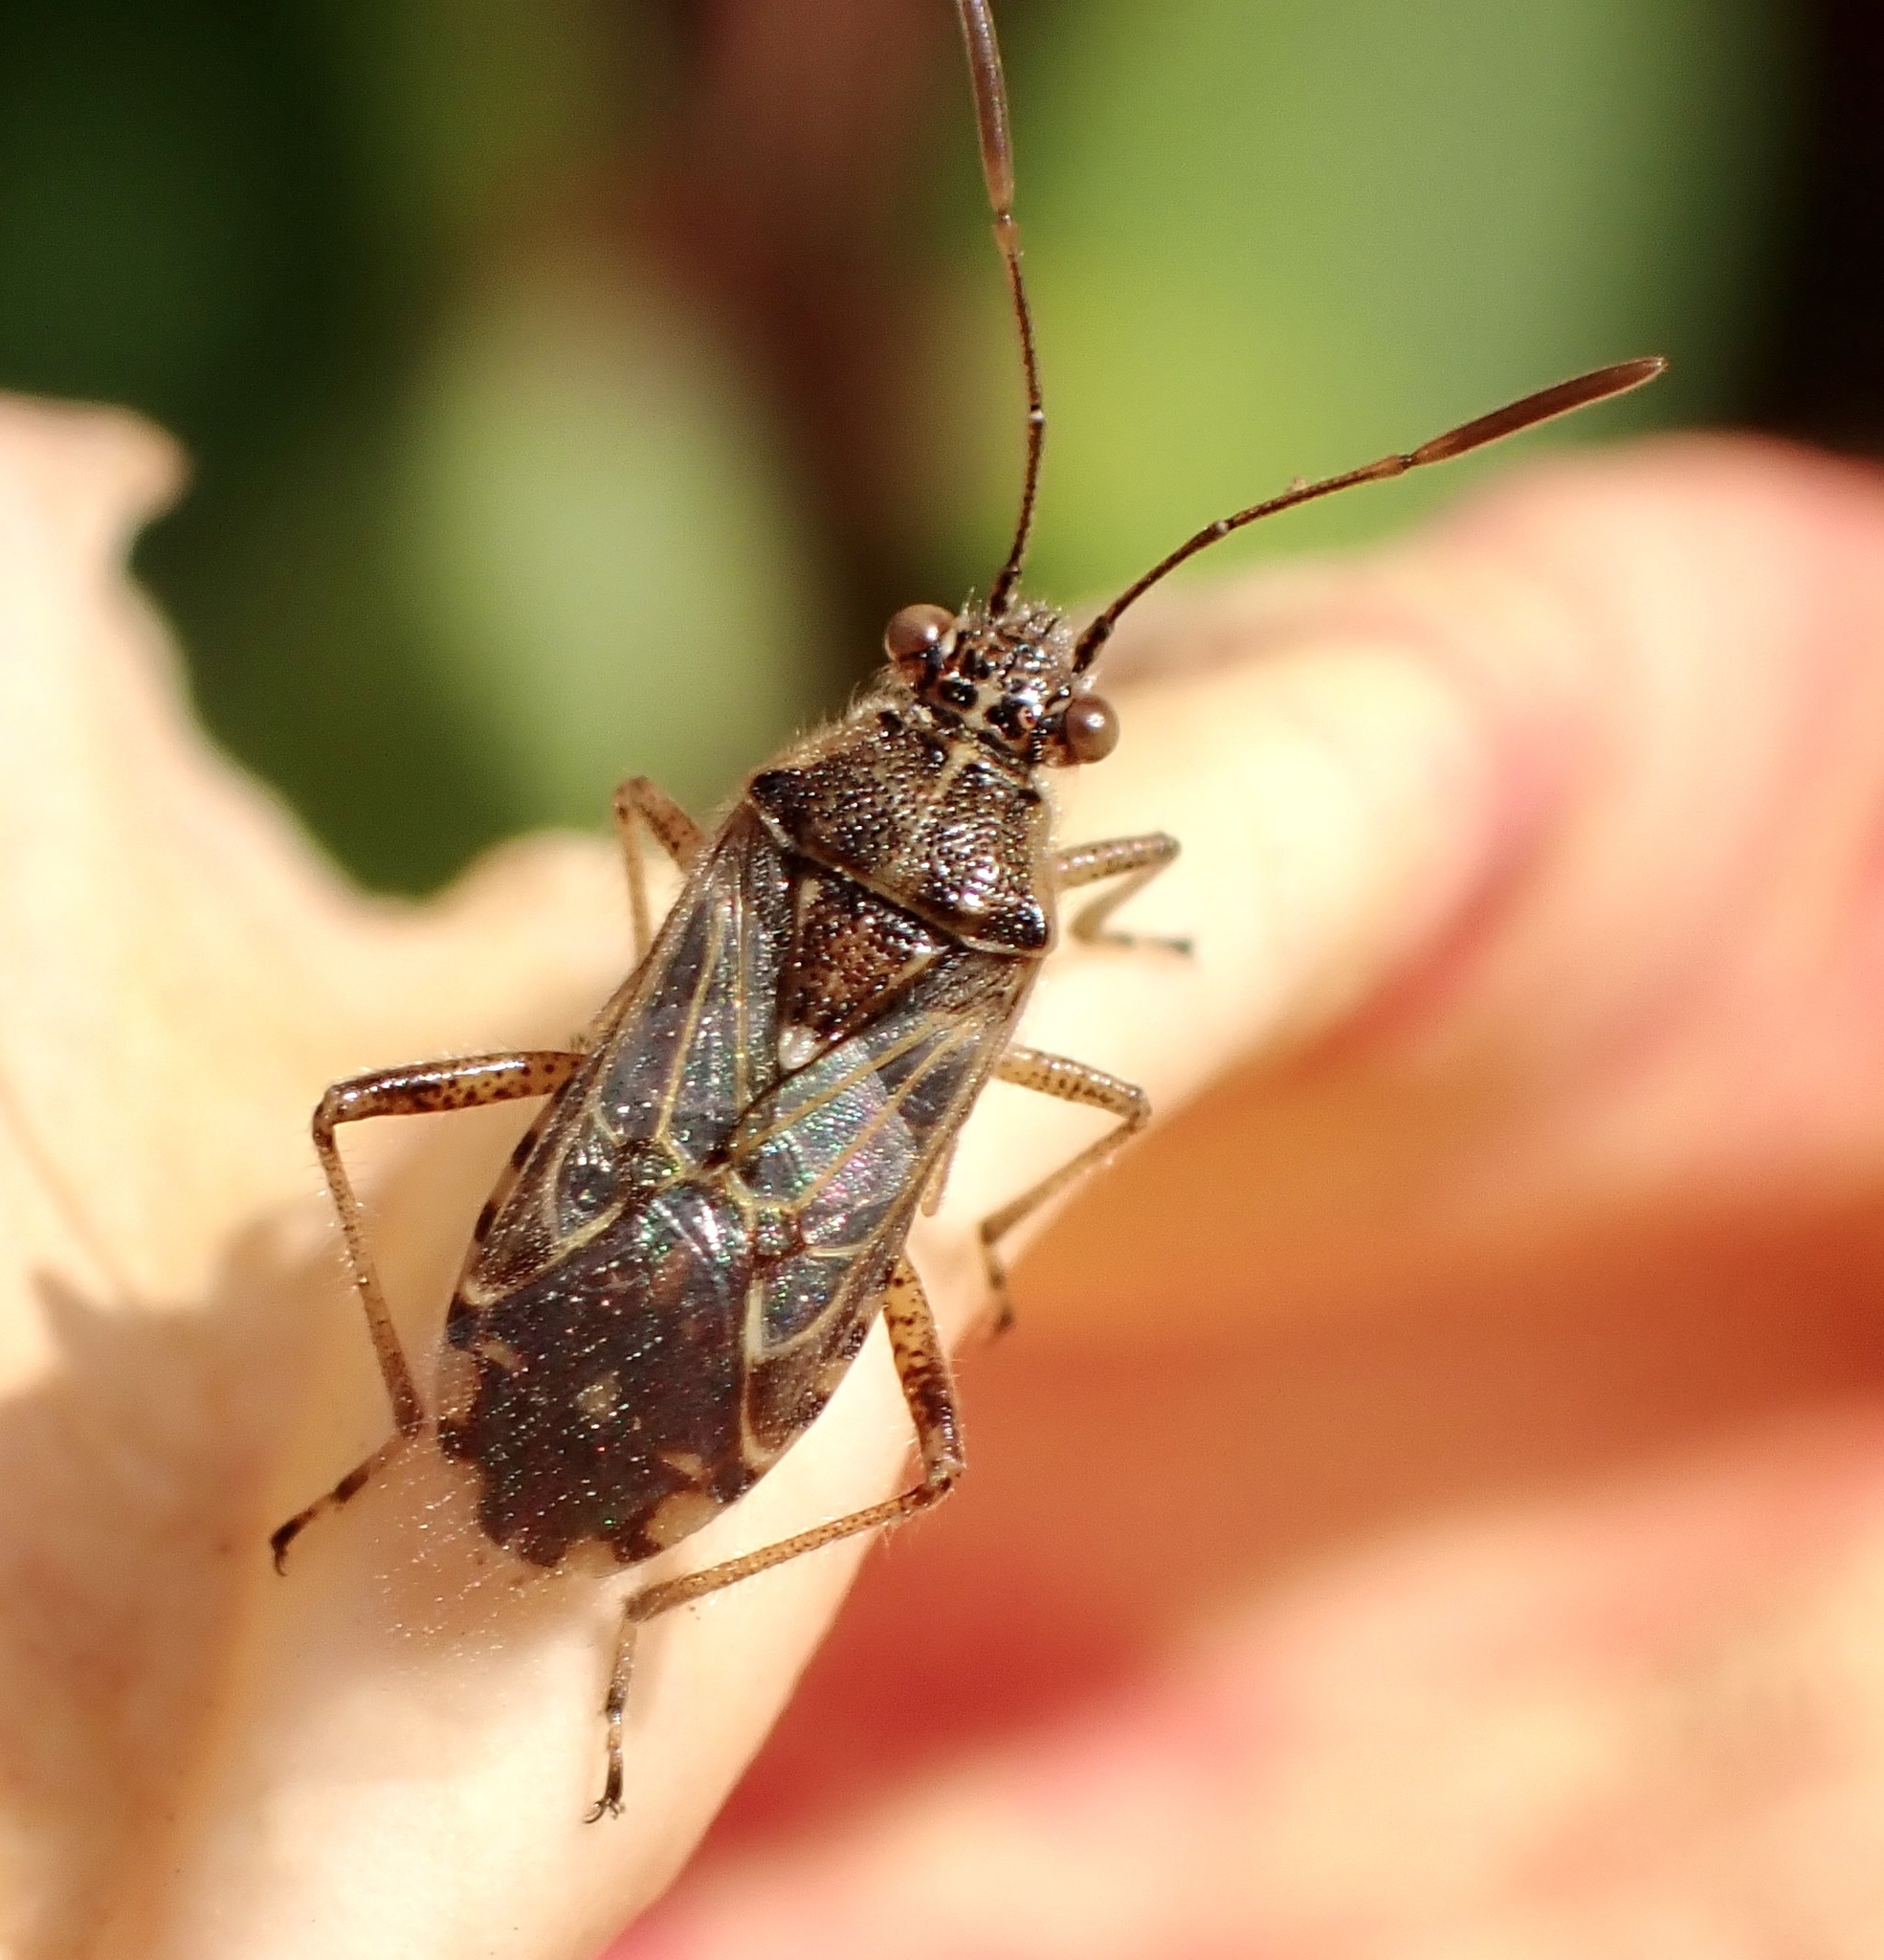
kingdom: Animalia
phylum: Arthropoda
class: Insecta
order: Hemiptera
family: Rhopalidae
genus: Liorhyssus
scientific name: Liorhyssus hyalinus
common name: Scentless plant bug
